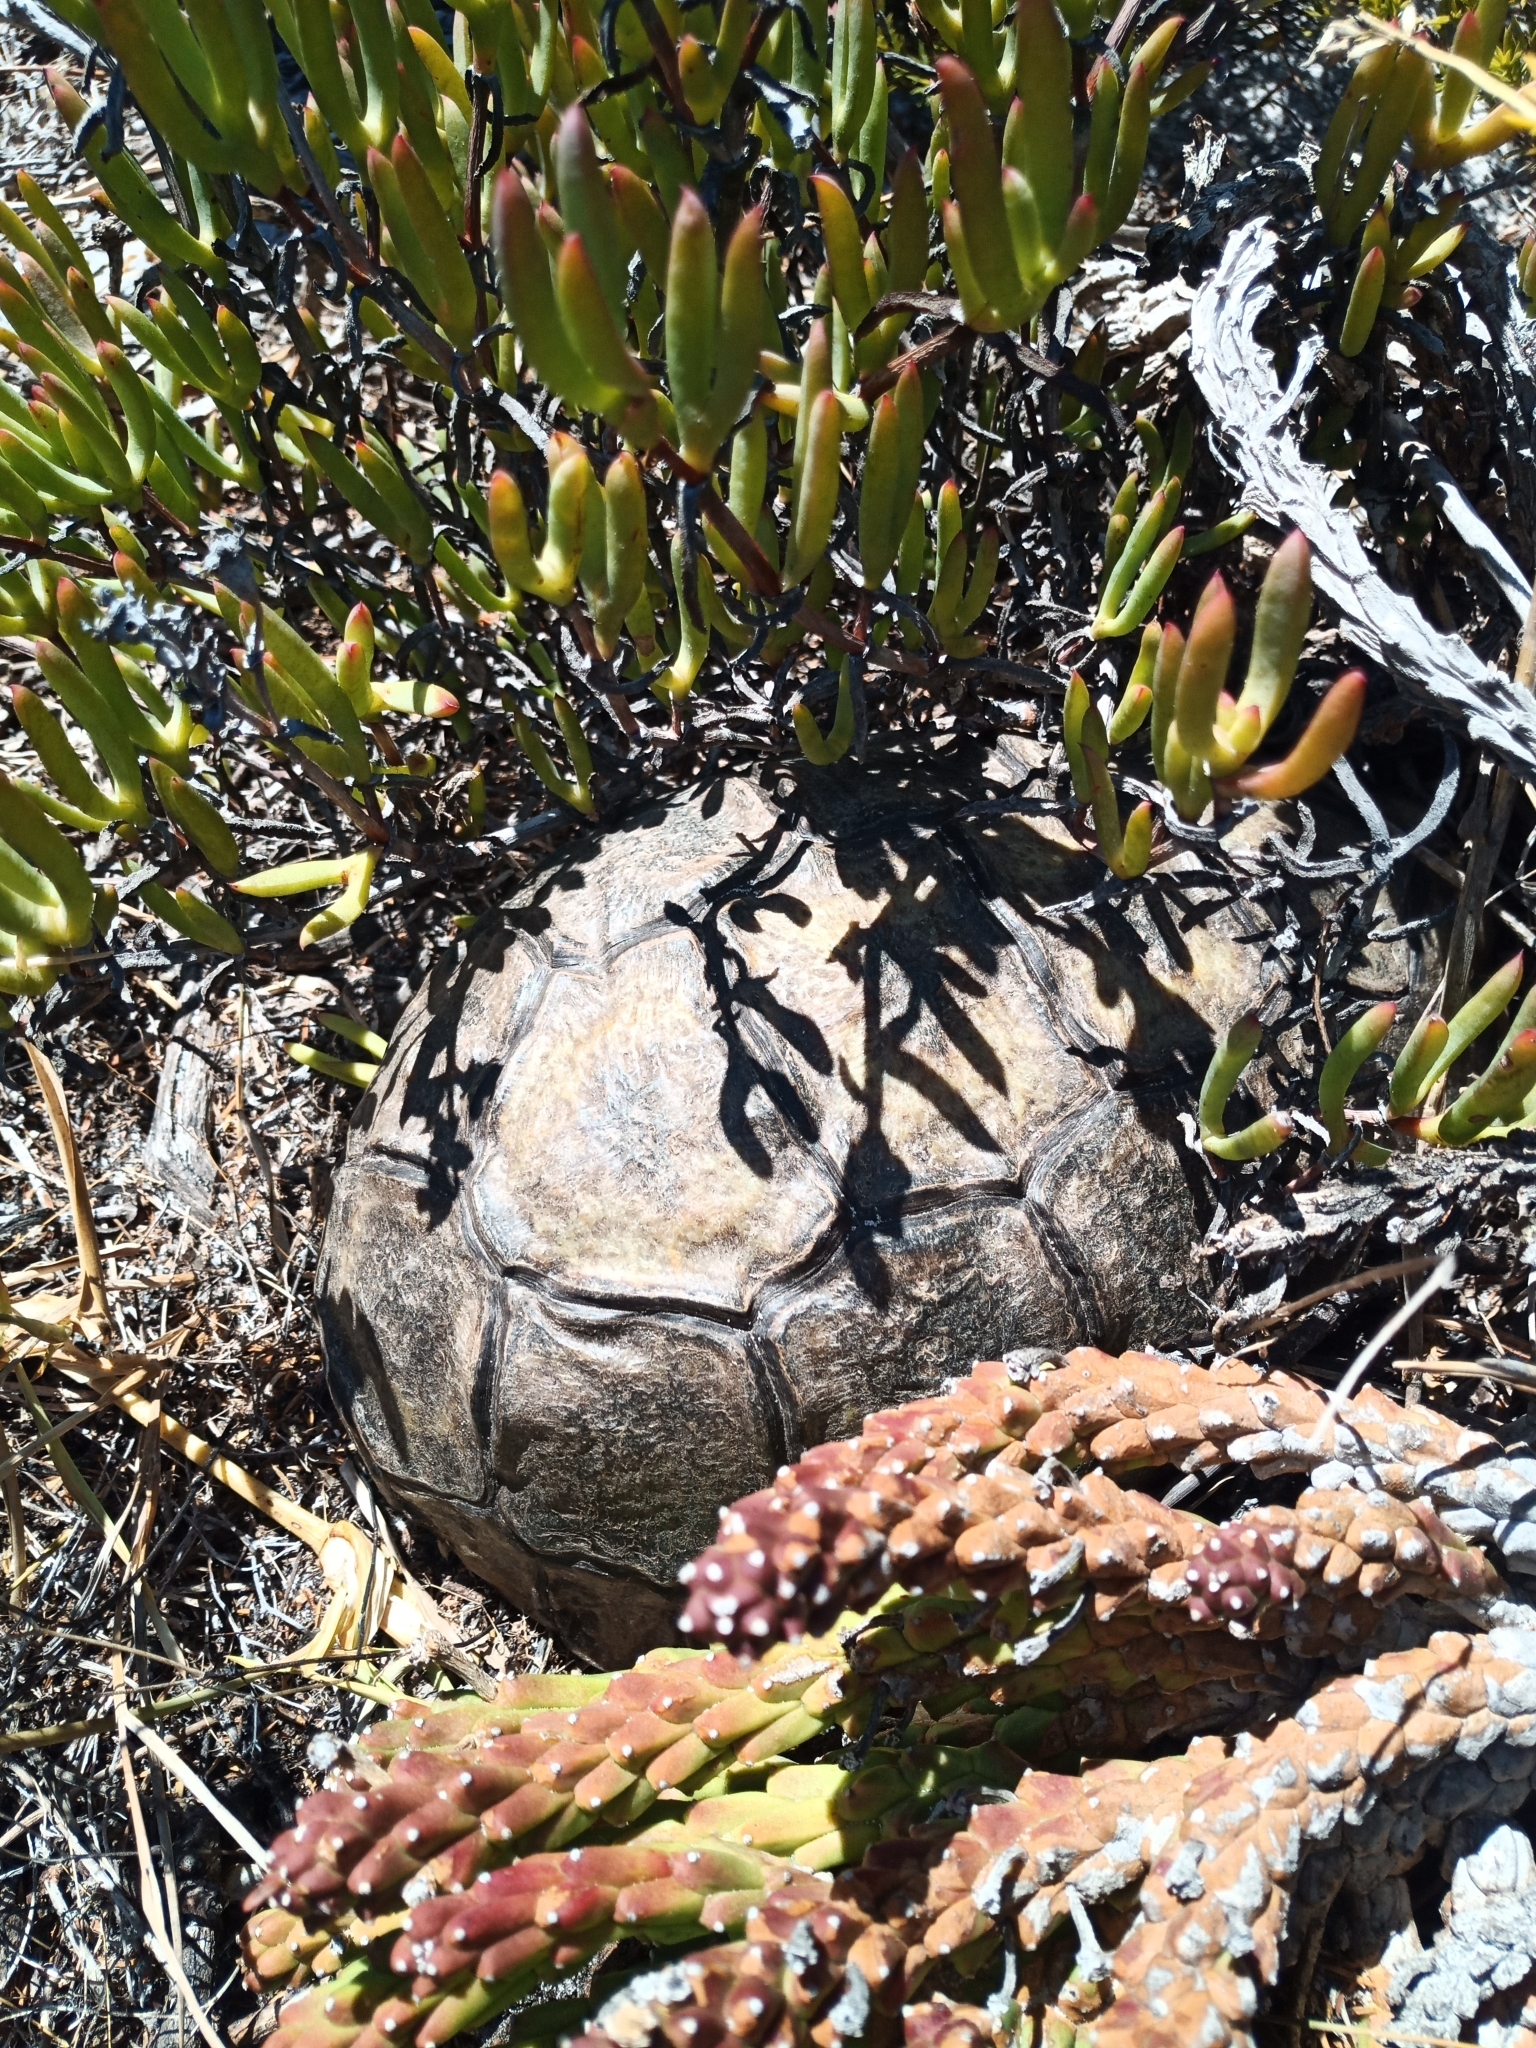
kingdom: Animalia
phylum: Chordata
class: Testudines
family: Testudinidae
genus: Chersina
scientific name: Chersina angulata
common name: South african bowsprit tortoise
